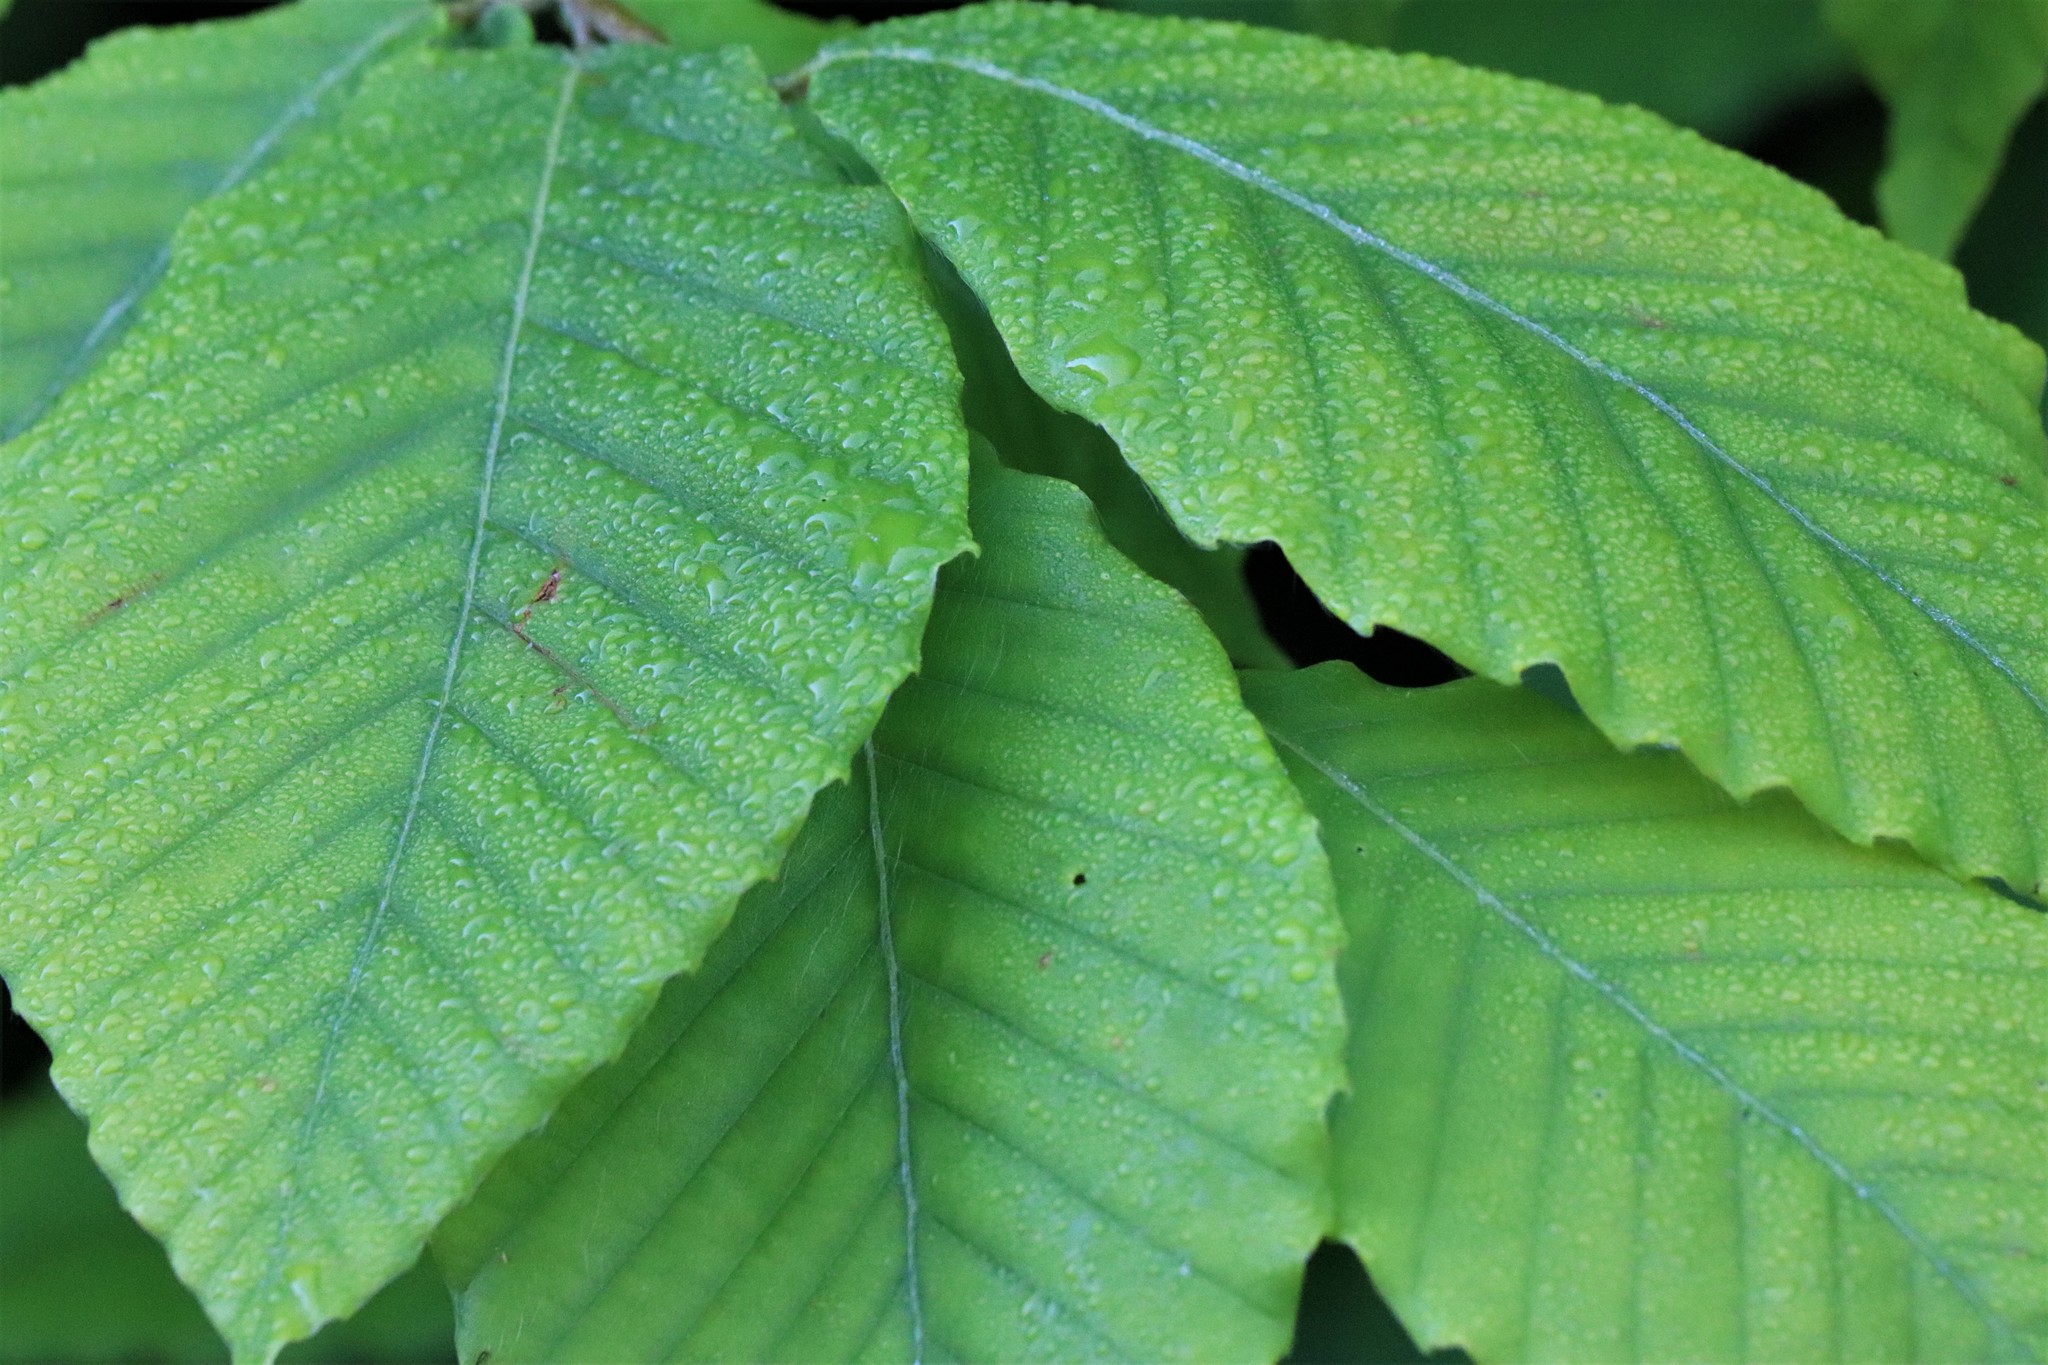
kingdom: Plantae
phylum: Tracheophyta
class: Magnoliopsida
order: Fagales
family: Fagaceae
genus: Fagus
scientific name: Fagus grandifolia
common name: American beech
